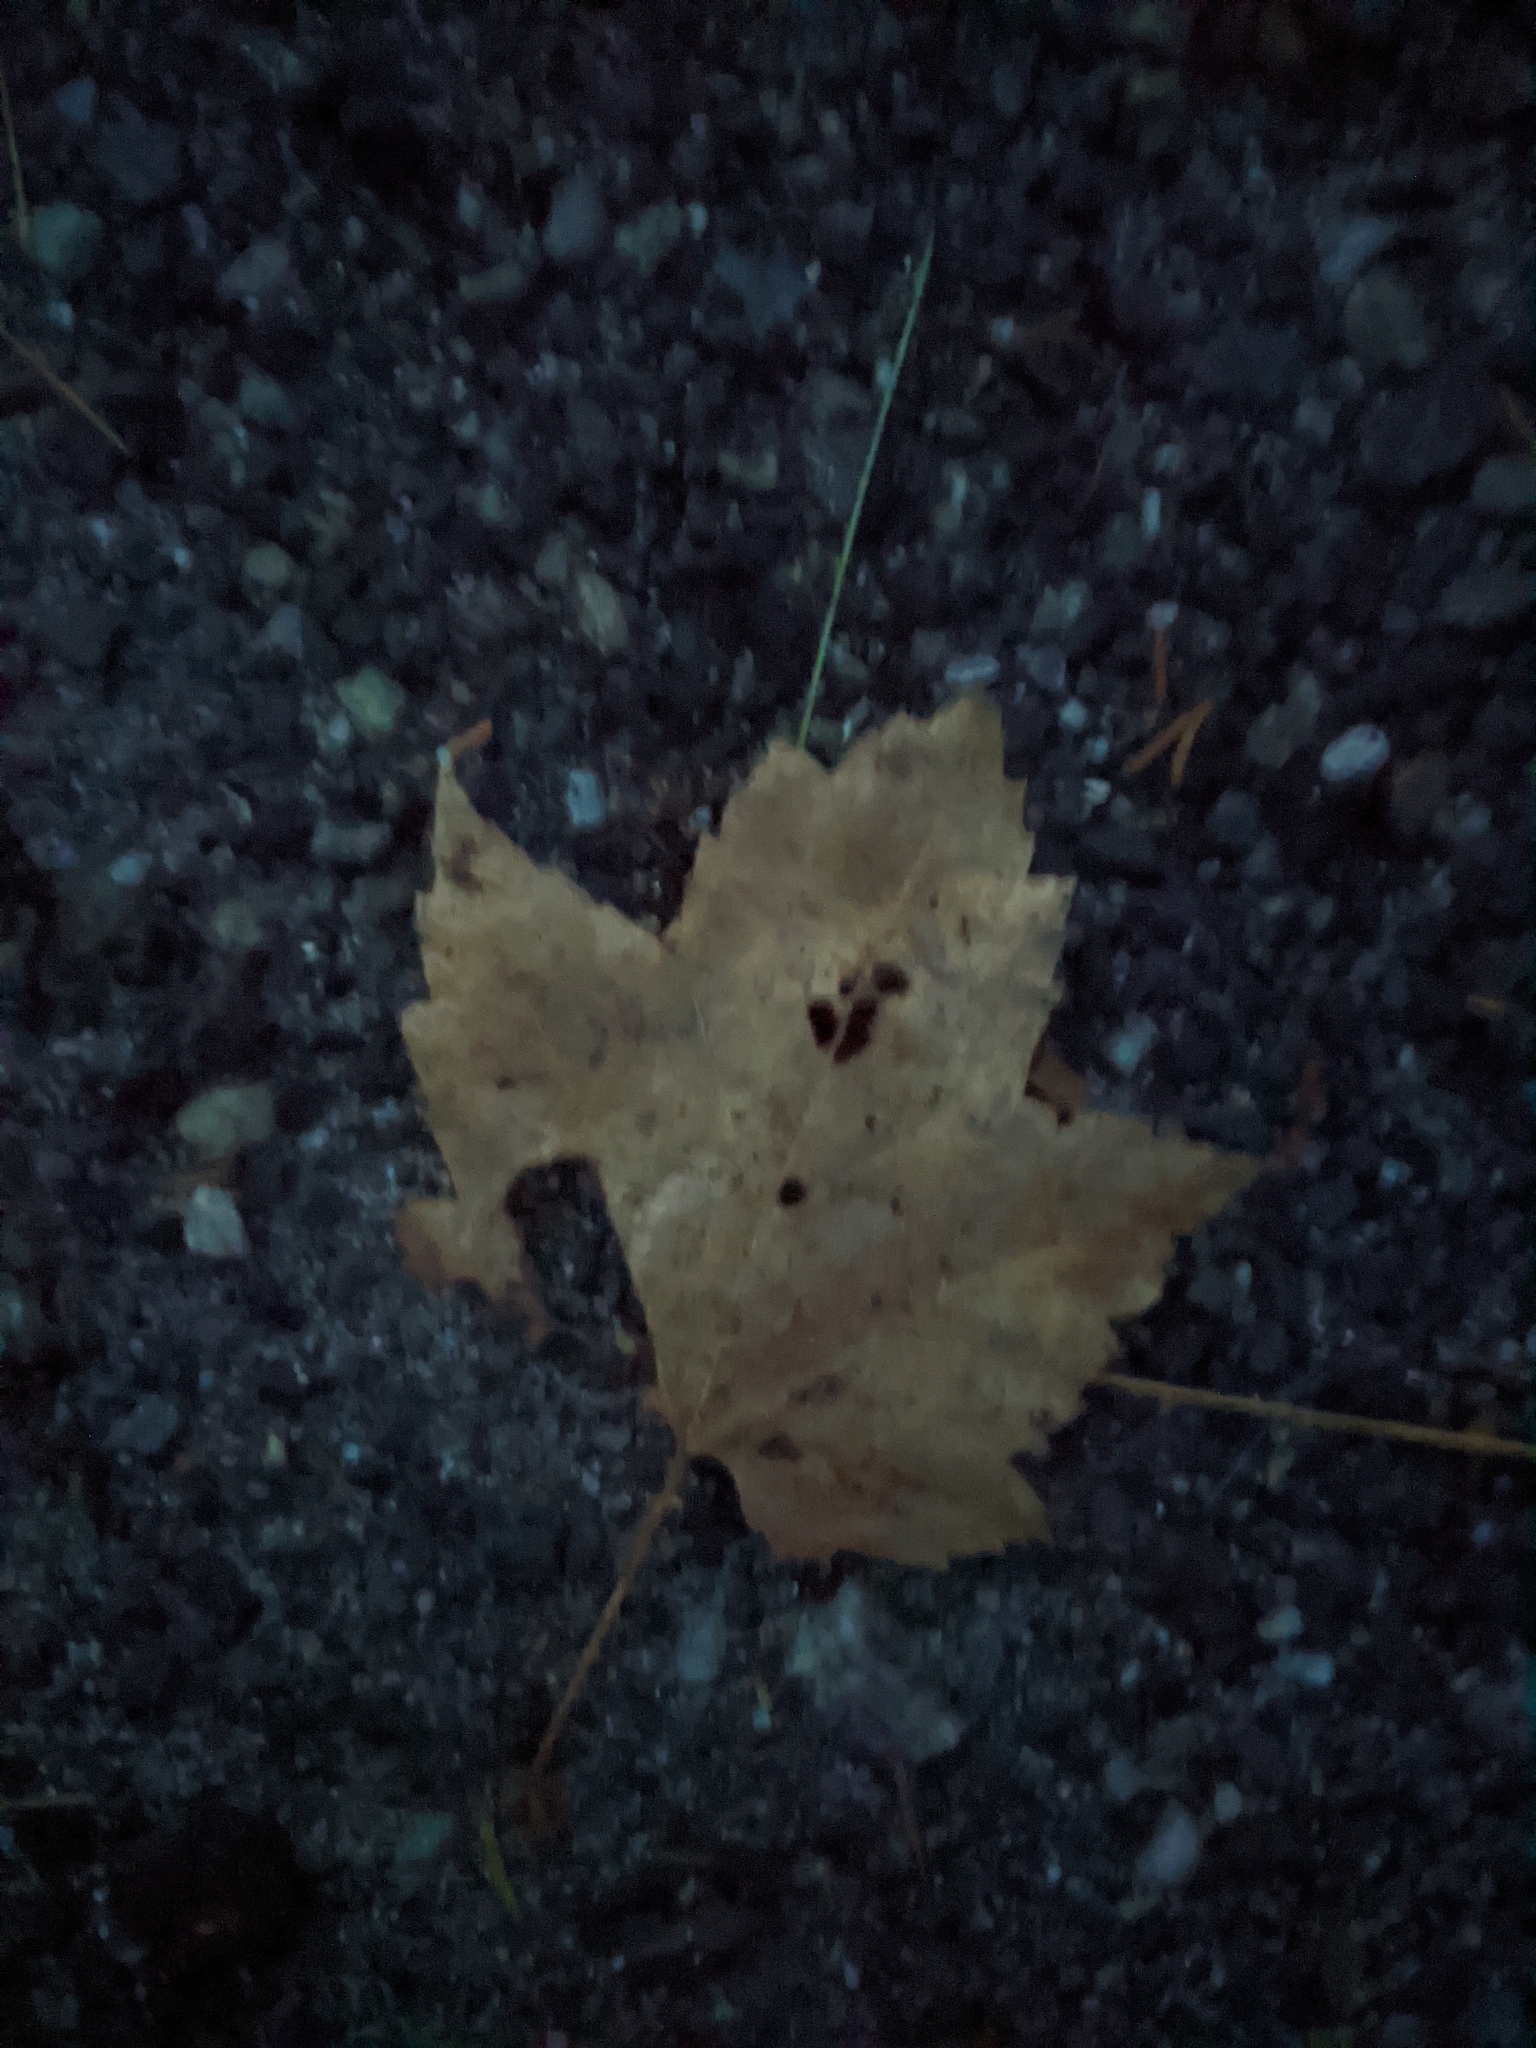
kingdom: Plantae
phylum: Tracheophyta
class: Magnoliopsida
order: Sapindales
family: Sapindaceae
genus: Acer
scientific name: Acer rubrum
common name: Red maple
